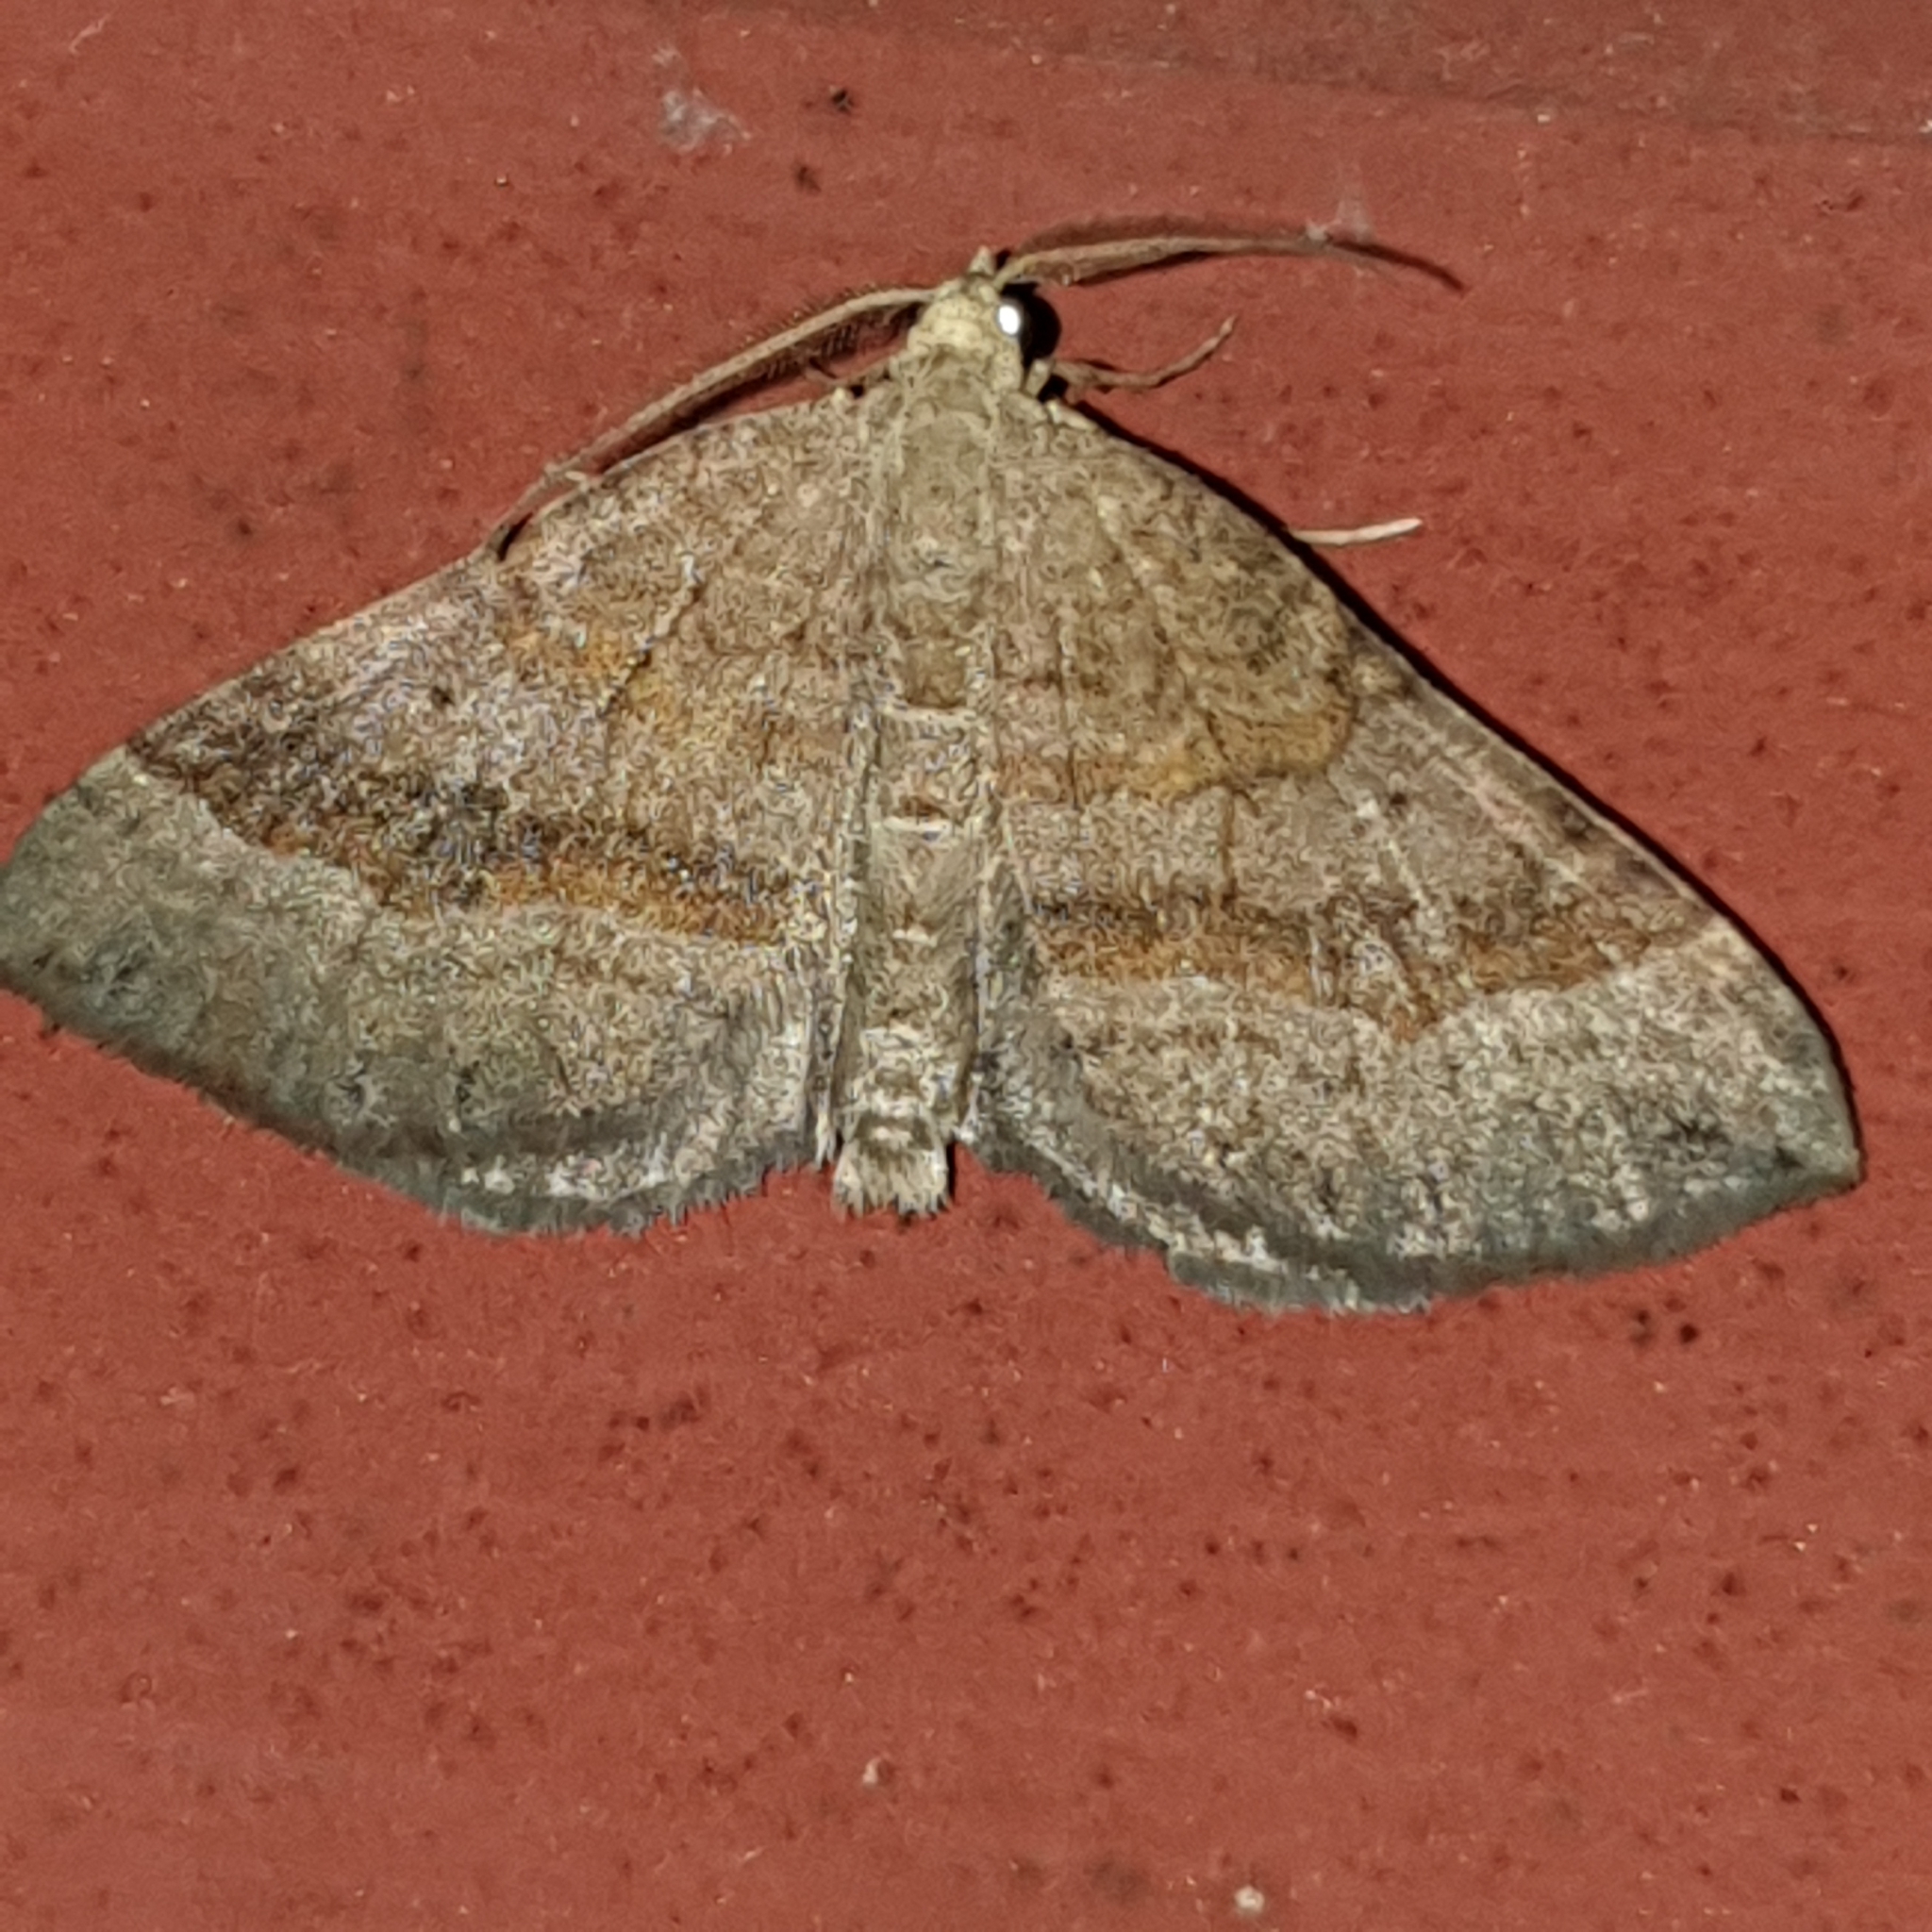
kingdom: Animalia
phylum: Arthropoda
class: Insecta
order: Lepidoptera
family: Geometridae
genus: Scotopteryx
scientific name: Scotopteryx chenopodiata
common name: Shaded broad-bar
